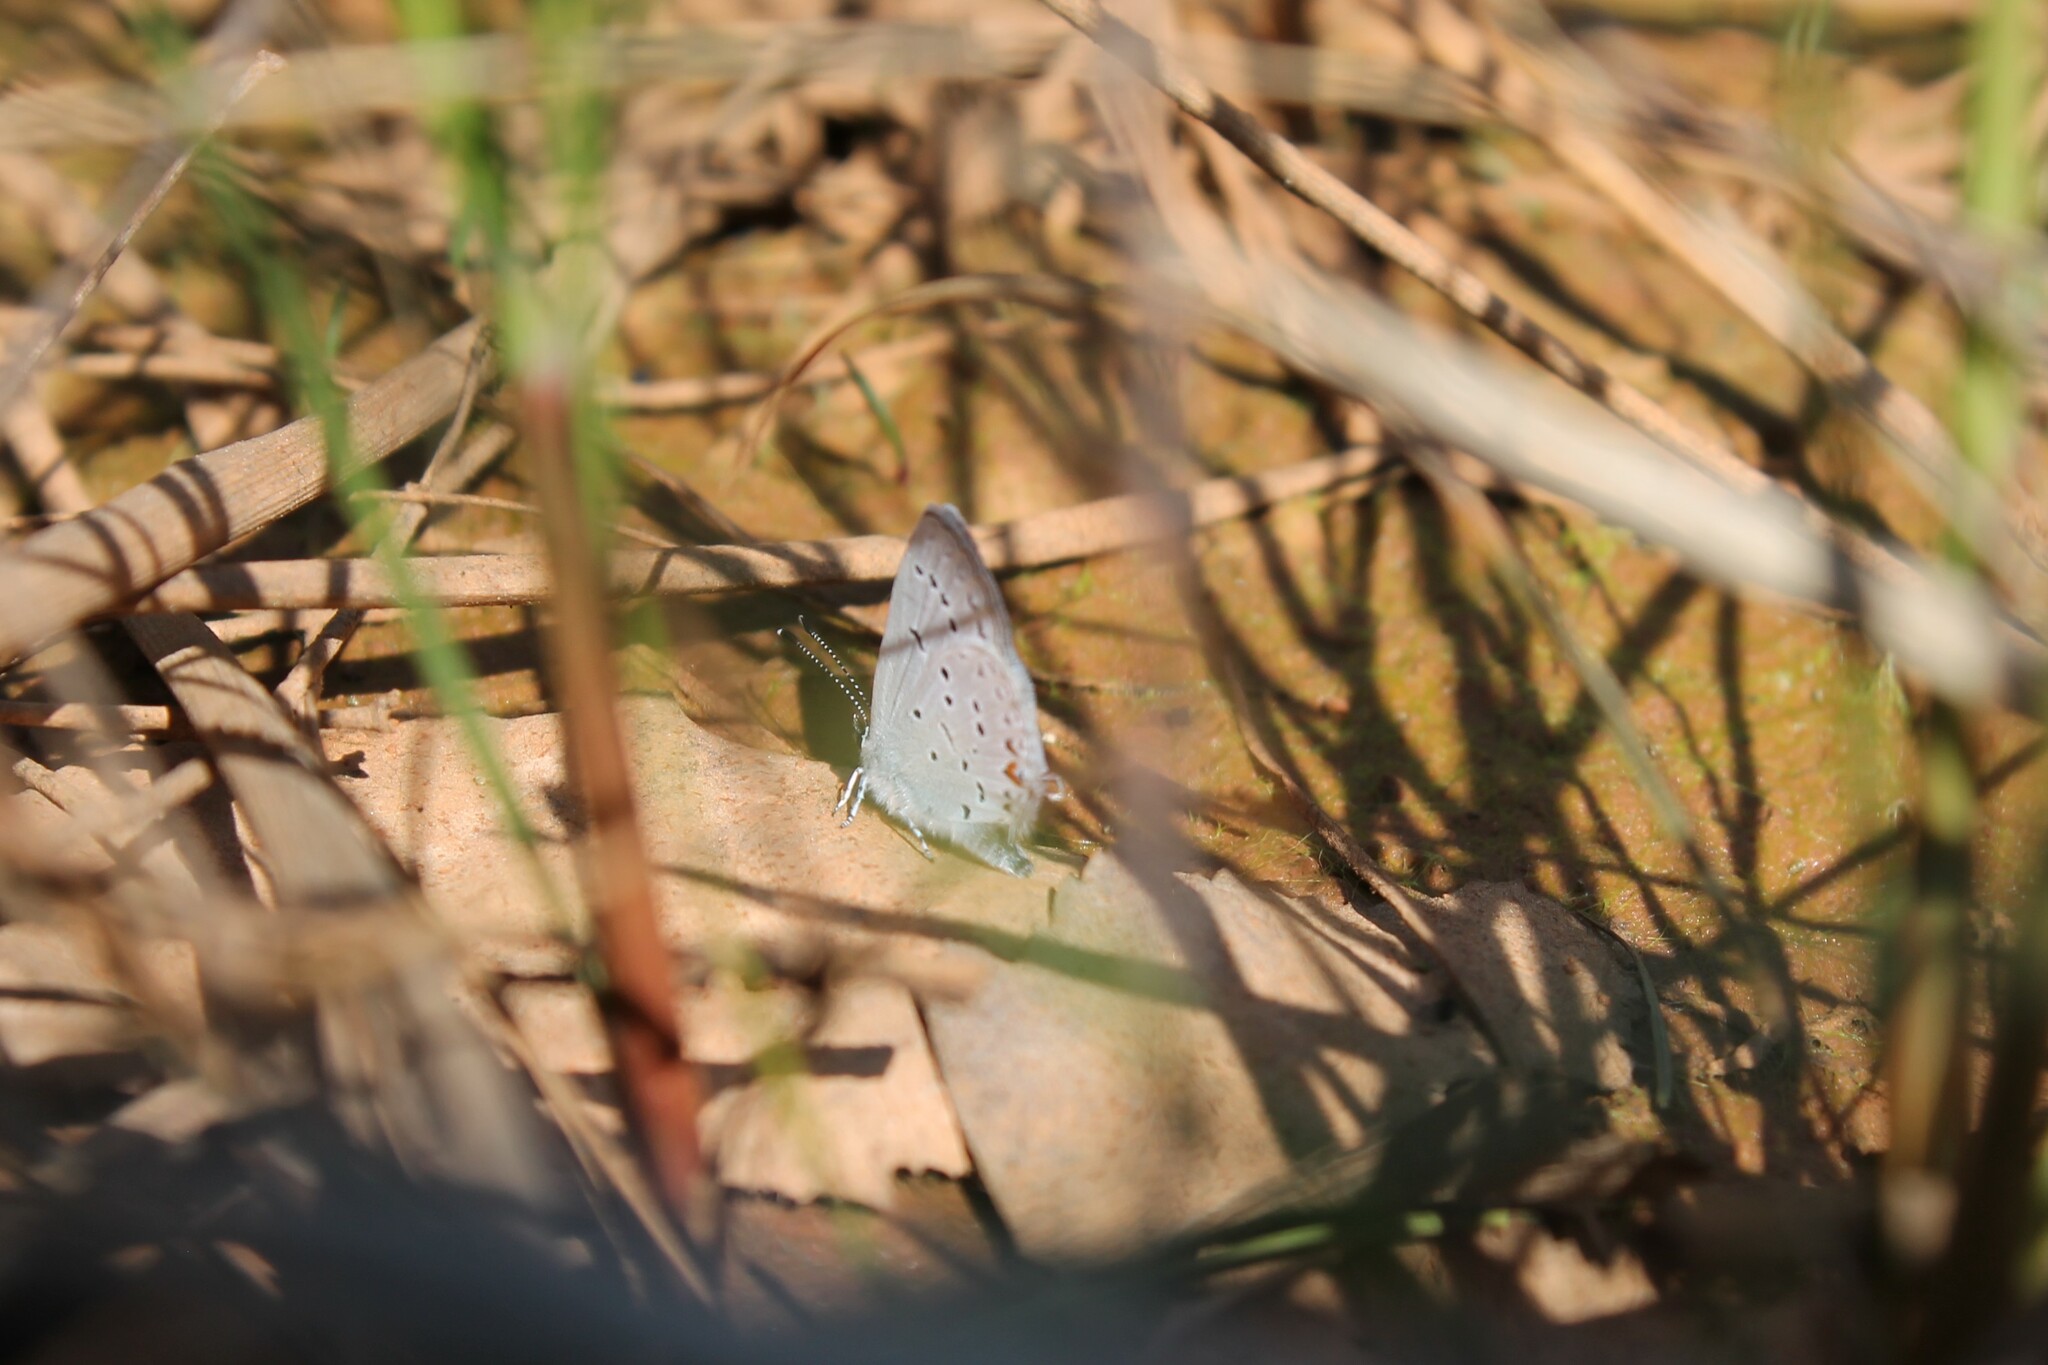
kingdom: Animalia
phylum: Arthropoda
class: Insecta
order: Lepidoptera
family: Lycaenidae
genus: Elkalyce
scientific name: Elkalyce comyntas
